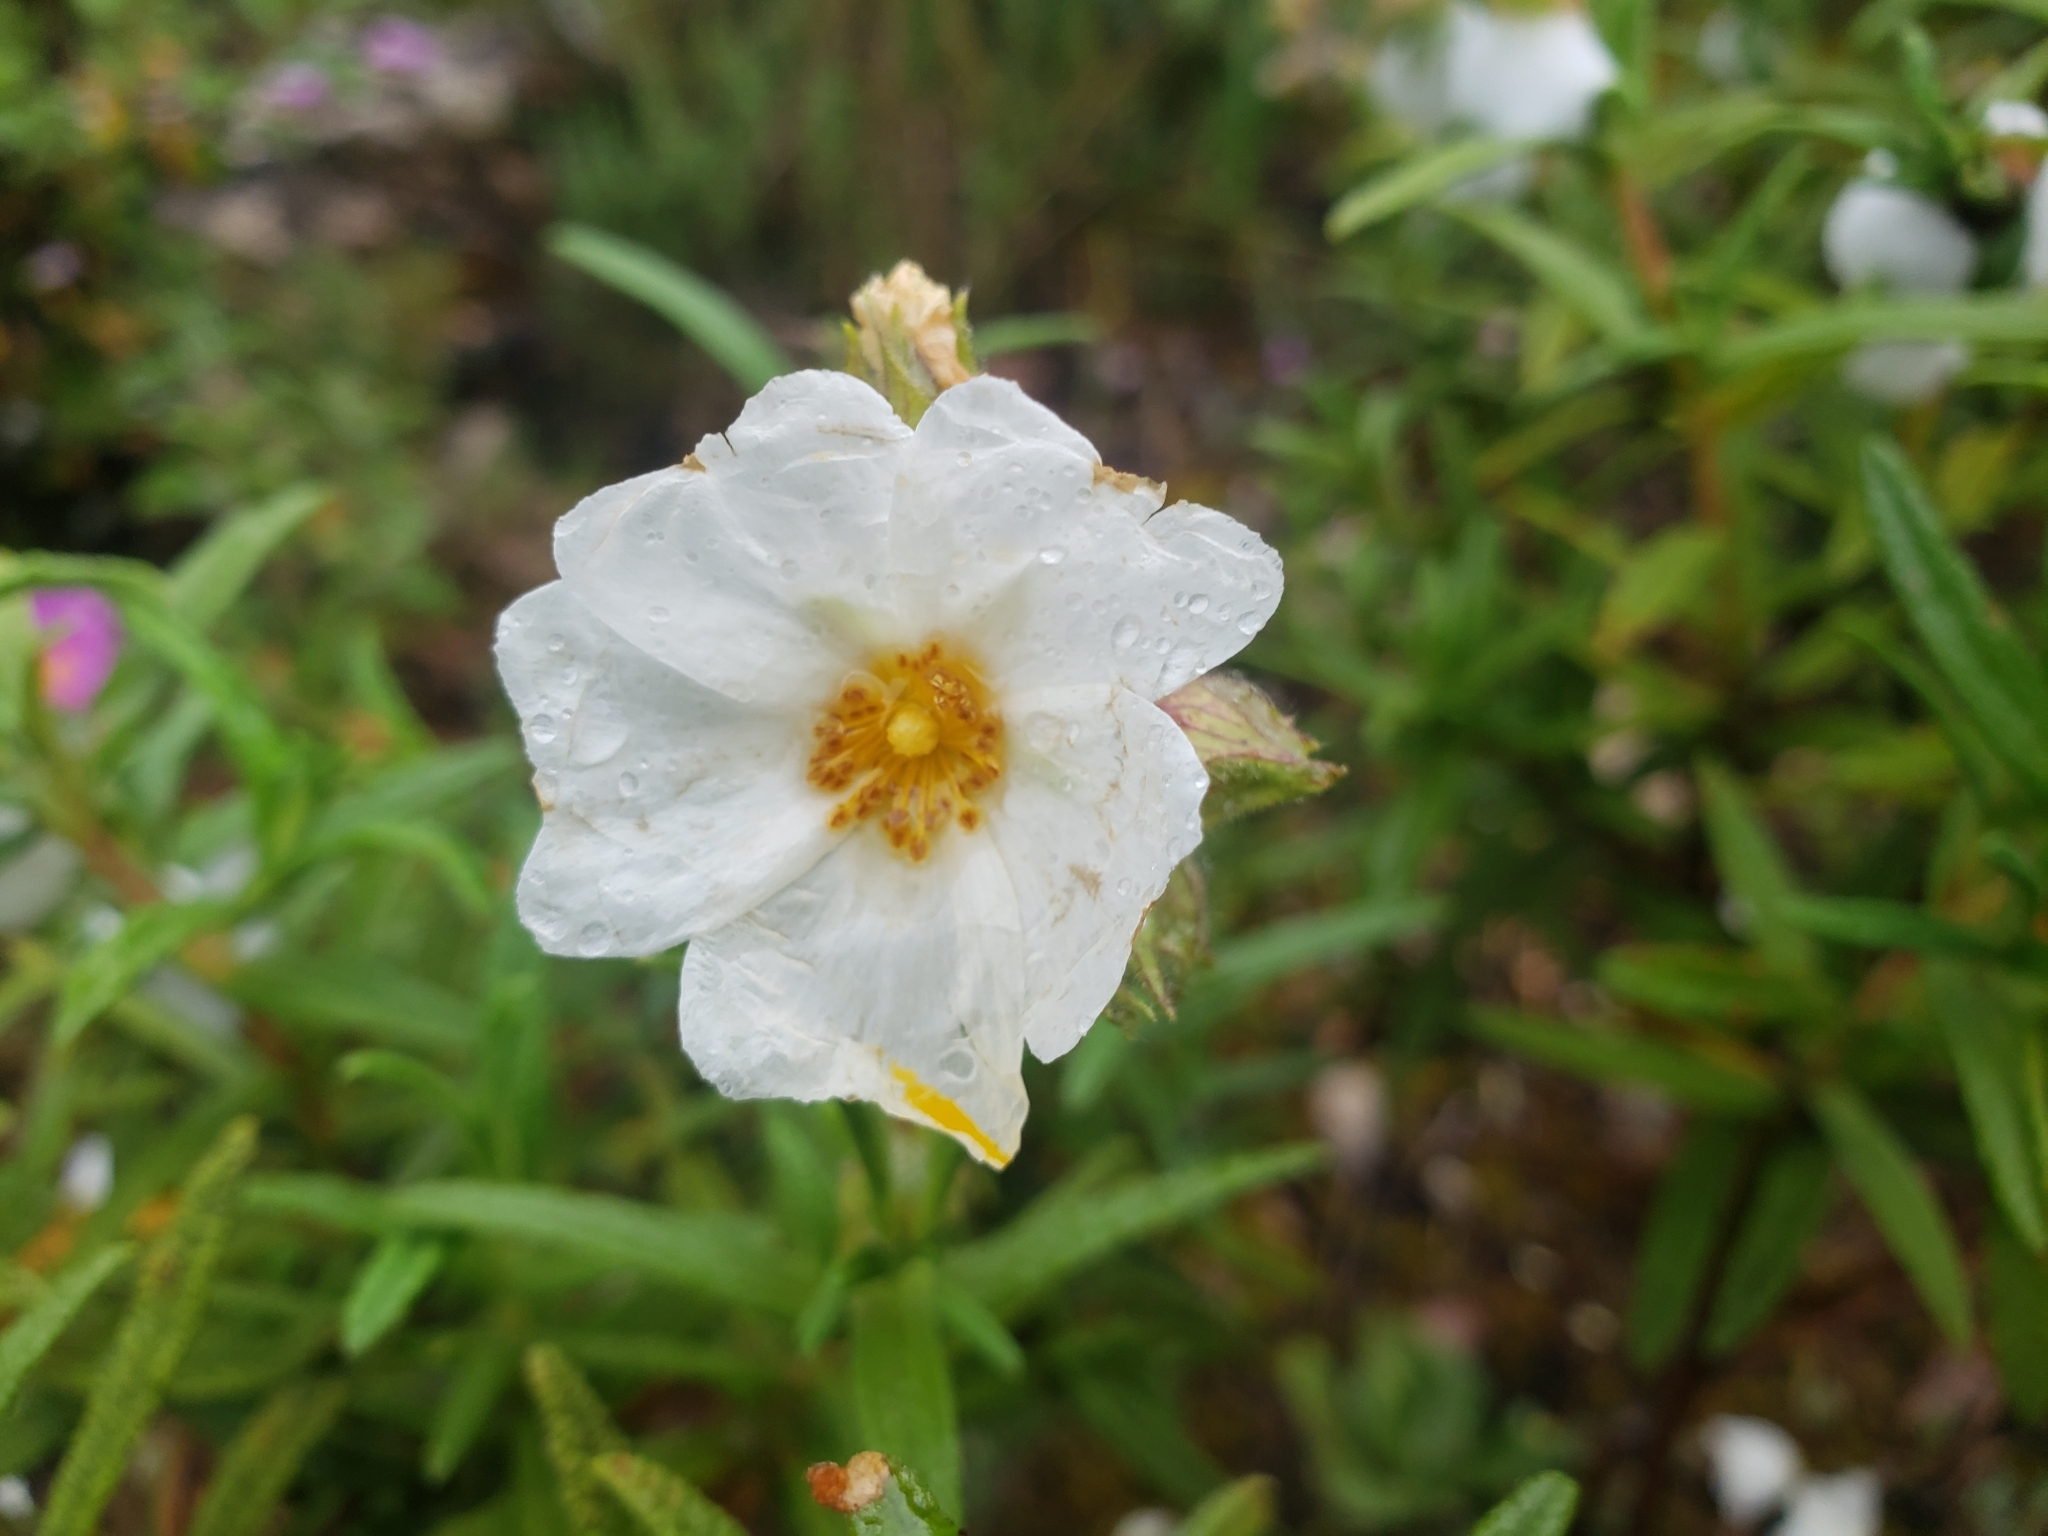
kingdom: Plantae
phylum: Tracheophyta
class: Magnoliopsida
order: Malvales
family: Cistaceae
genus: Cistus
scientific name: Cistus monspeliensis
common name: Montpelier cistus
